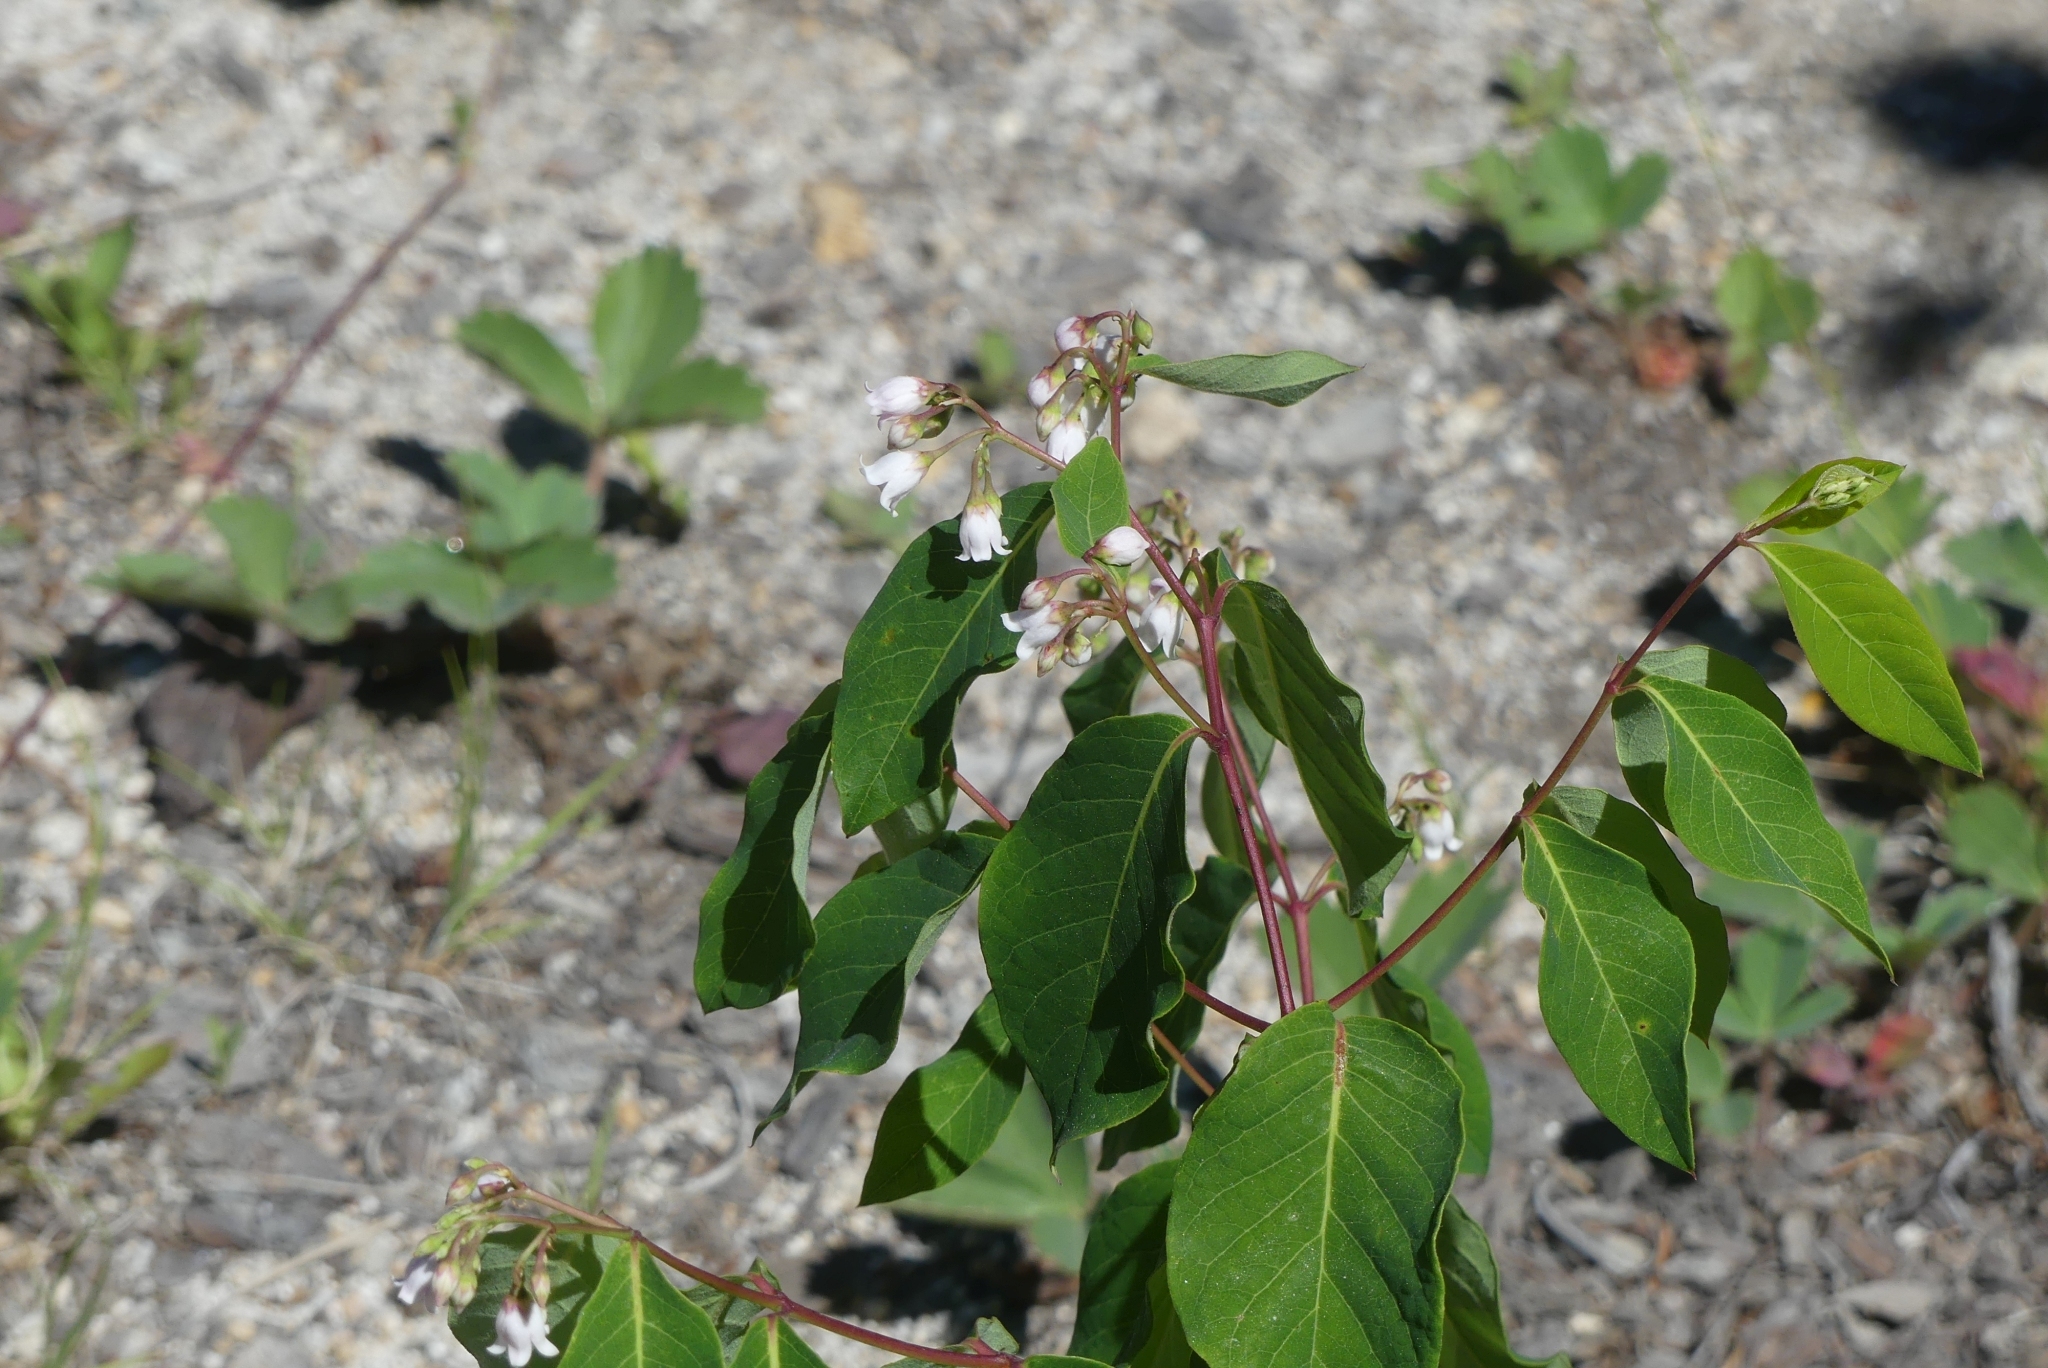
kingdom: Plantae
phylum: Tracheophyta
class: Magnoliopsida
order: Gentianales
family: Apocynaceae
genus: Apocynum
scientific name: Apocynum androsaemifolium
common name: Spreading dogbane
